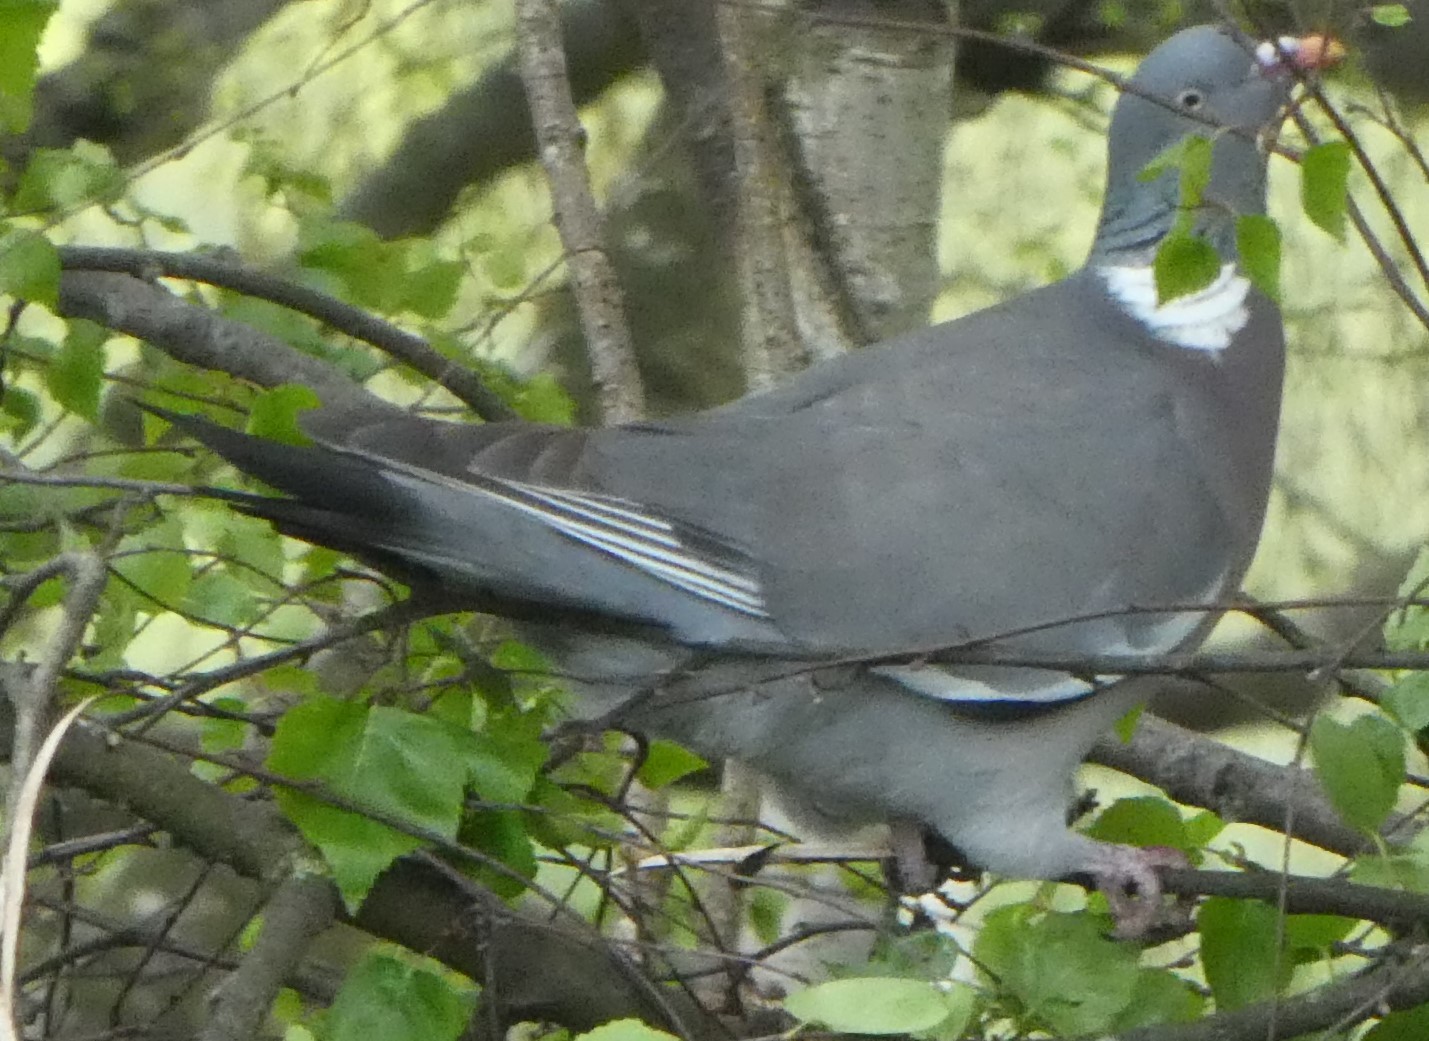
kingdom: Animalia
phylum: Chordata
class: Aves
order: Columbiformes
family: Columbidae
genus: Columba
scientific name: Columba palumbus
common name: Common wood pigeon
